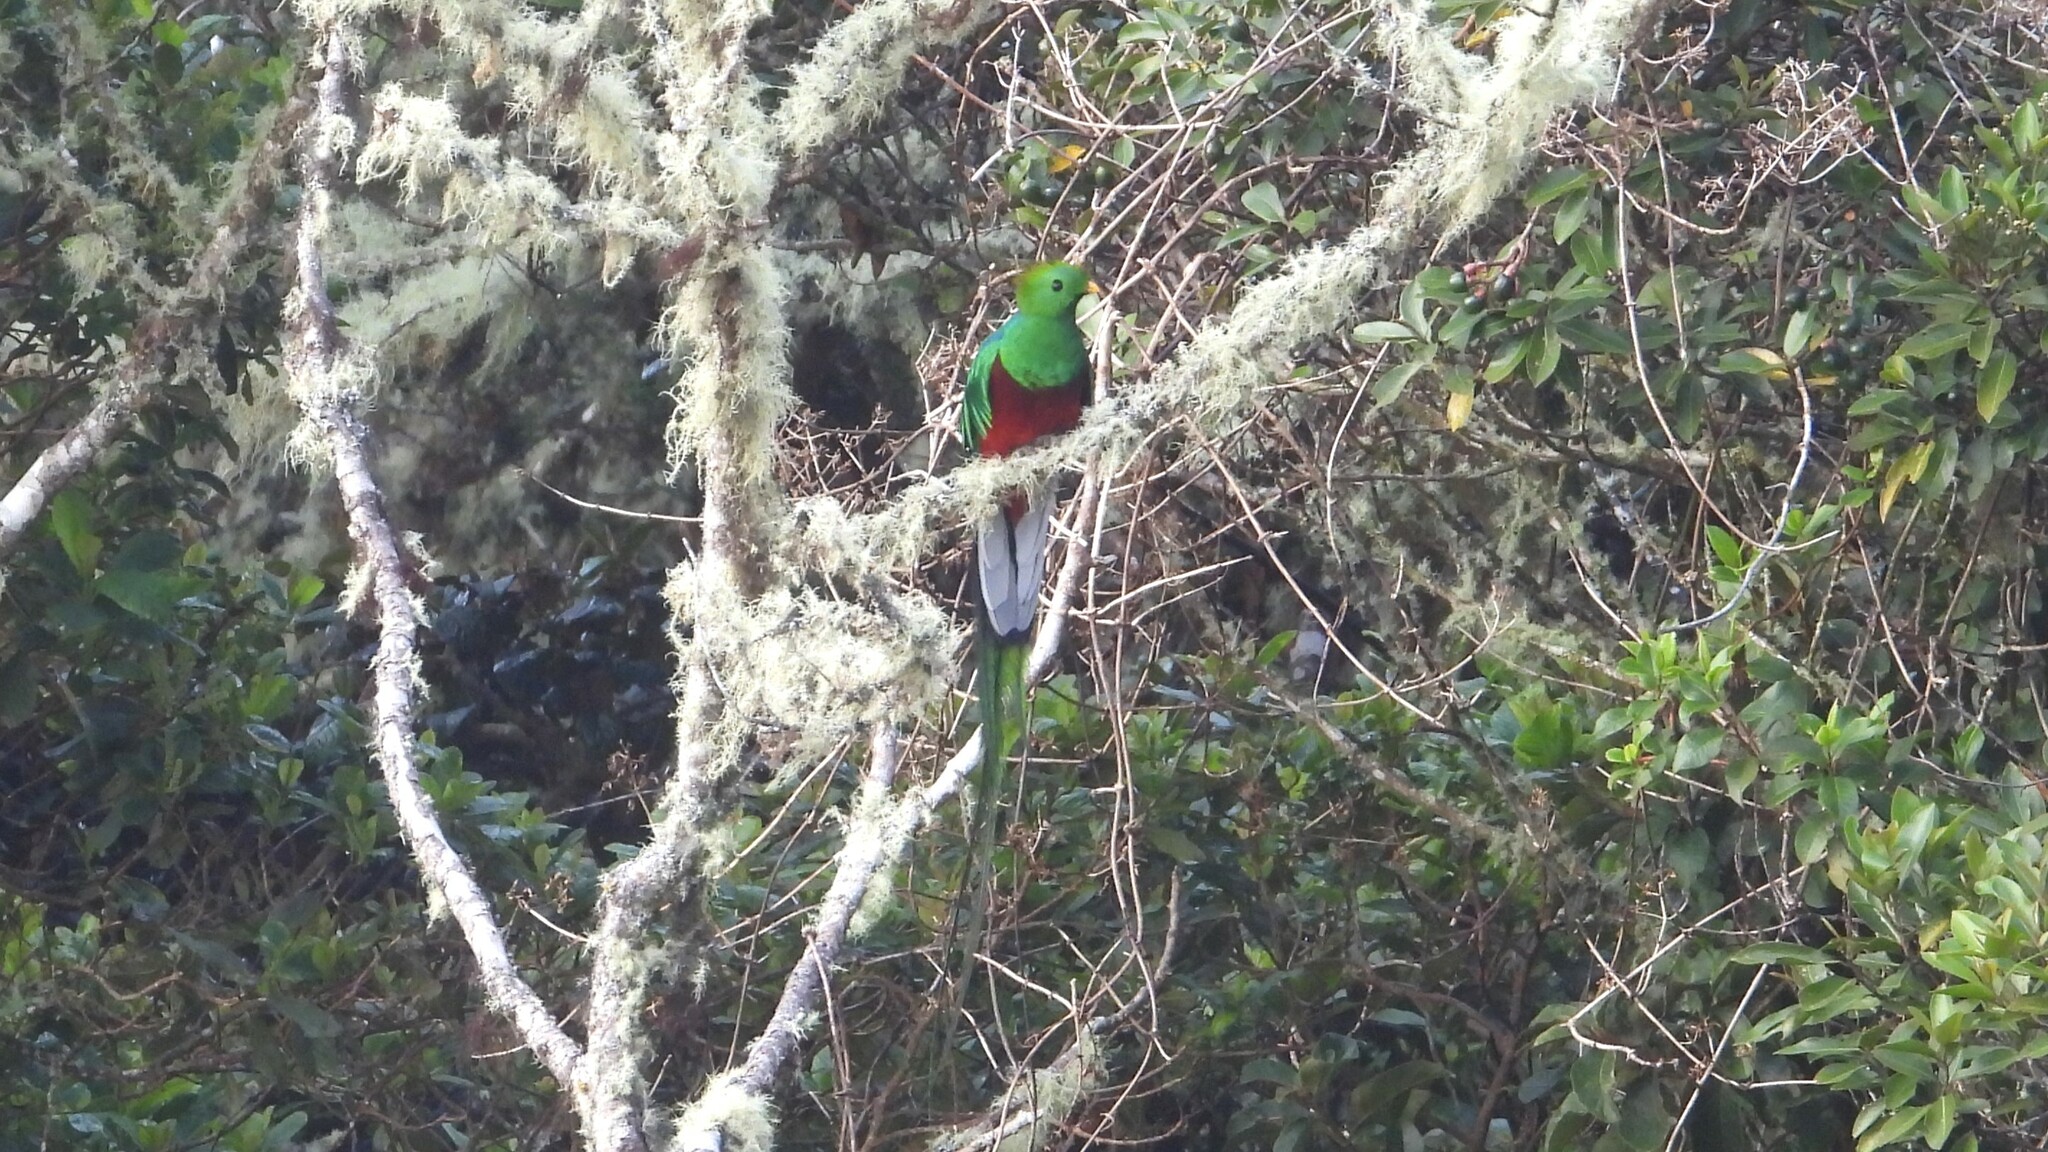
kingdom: Animalia
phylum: Chordata
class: Aves
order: Trogoniformes
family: Trogonidae
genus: Pharomachrus
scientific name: Pharomachrus mocinno
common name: Resplendent quetzal
